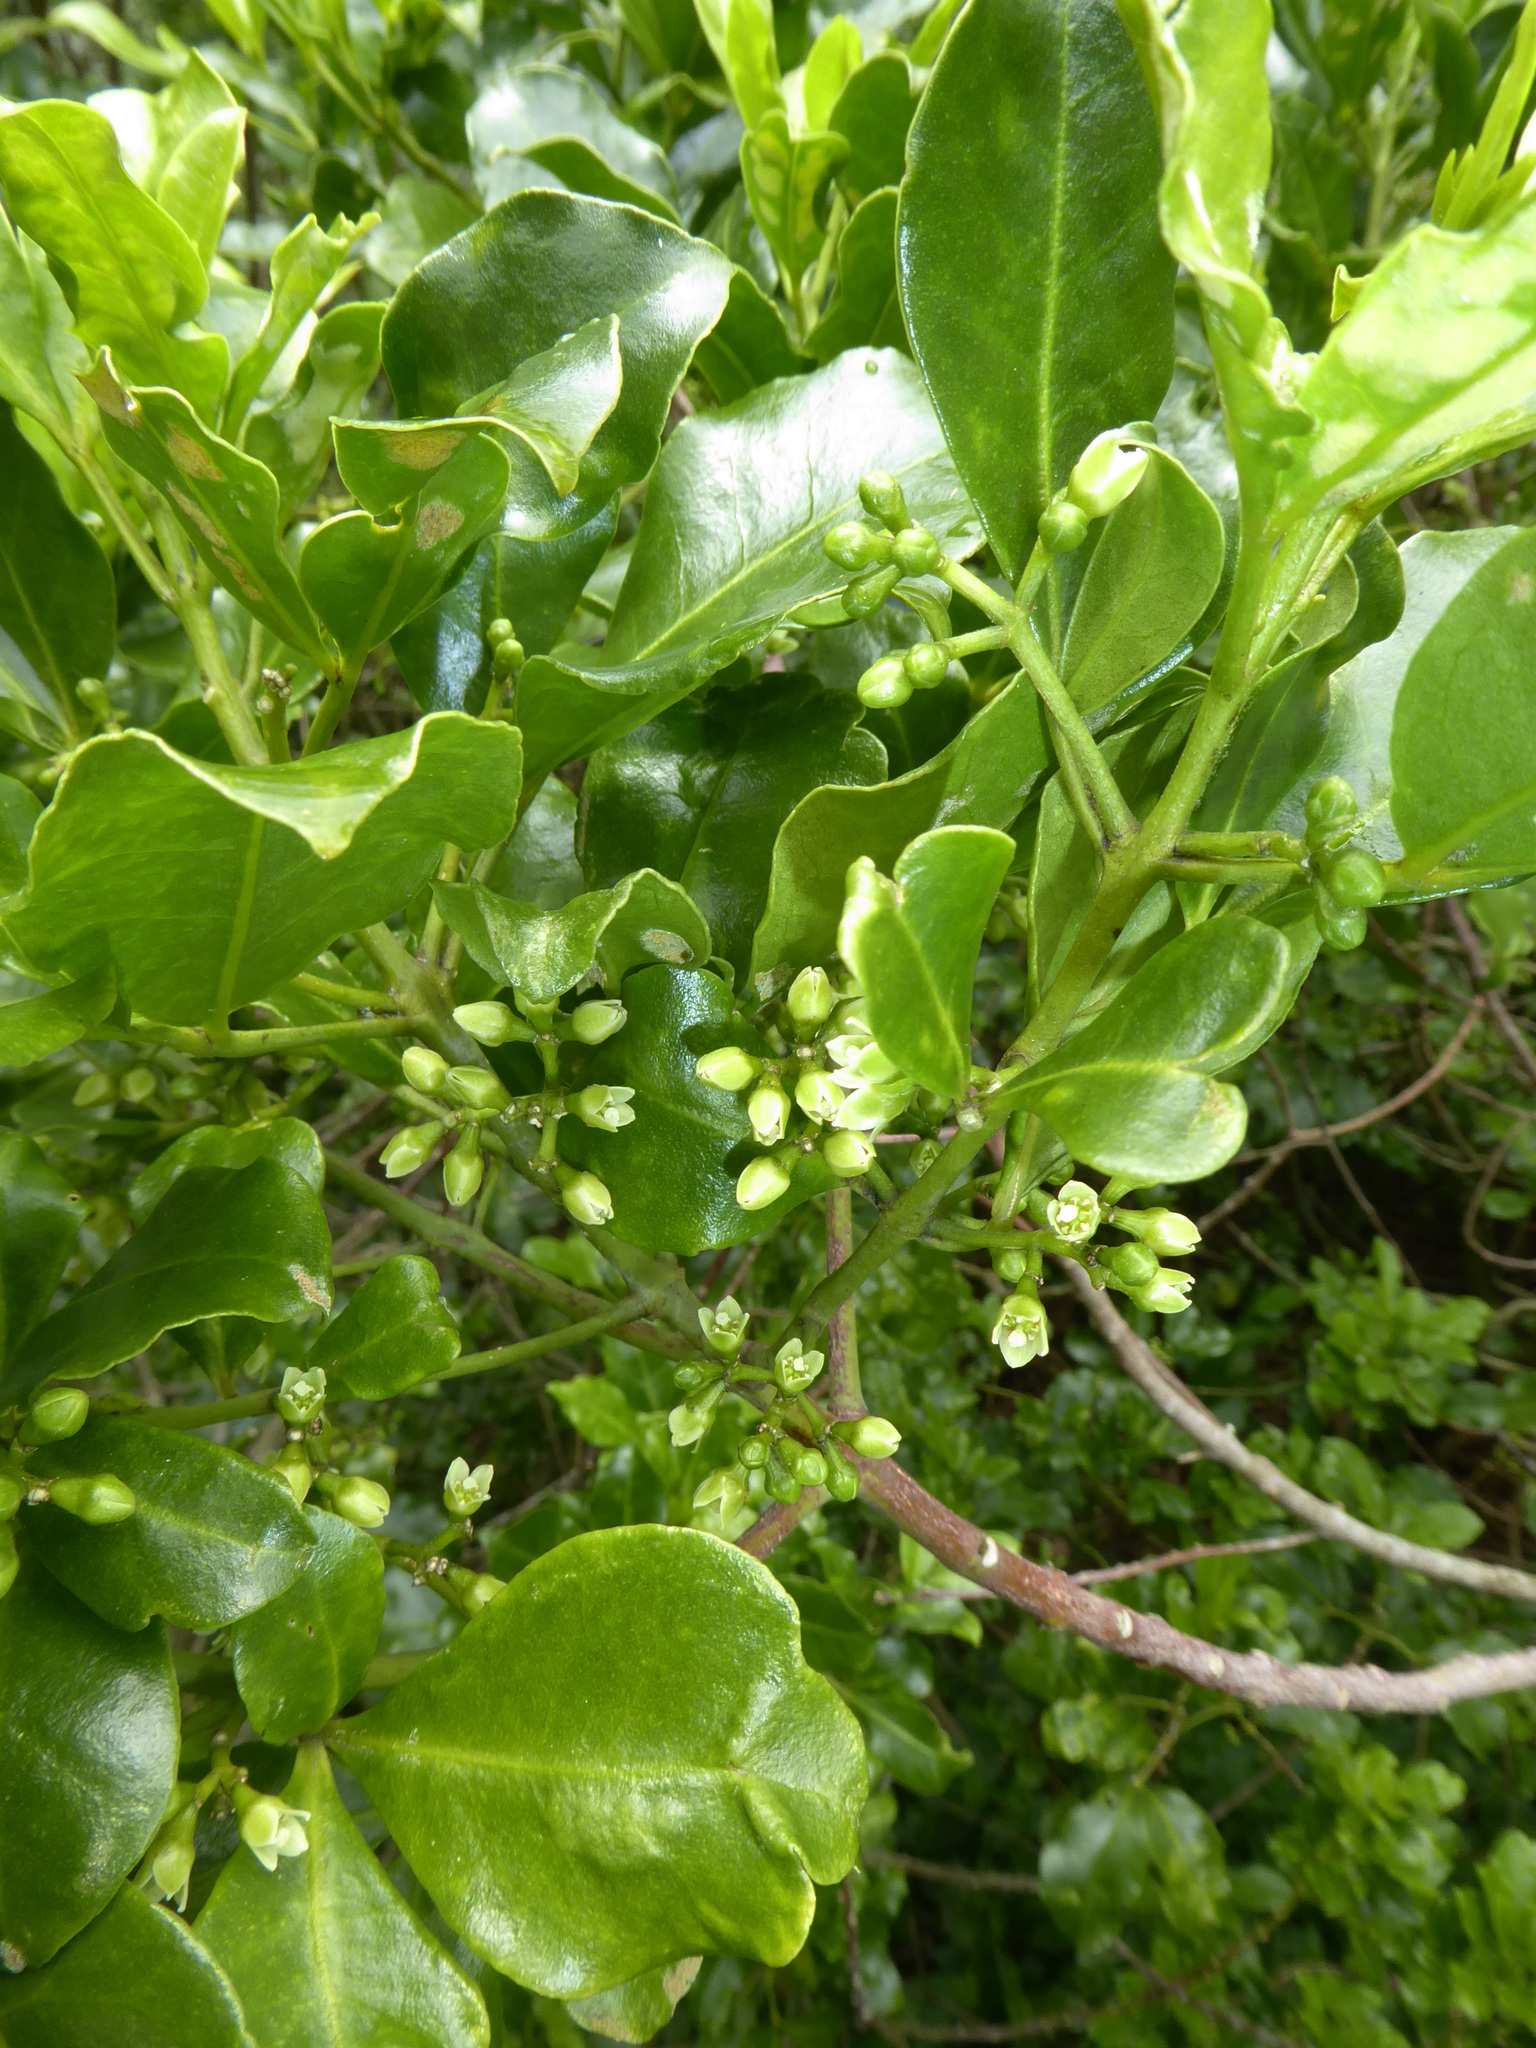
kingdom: Plantae
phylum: Tracheophyta
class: Magnoliopsida
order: Sapindales
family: Rutaceae
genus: Melicope
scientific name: Melicope ternata
